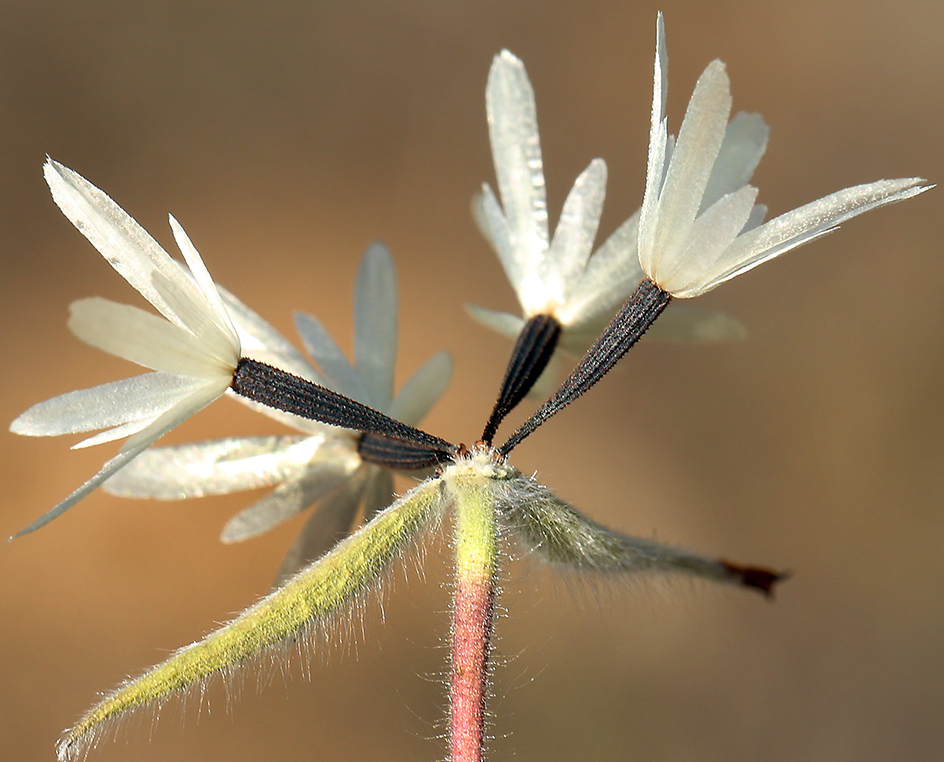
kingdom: Plantae
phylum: Tracheophyta
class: Magnoliopsida
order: Asterales
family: Asteraceae
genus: Achyrachaena
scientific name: Achyrachaena mollis
